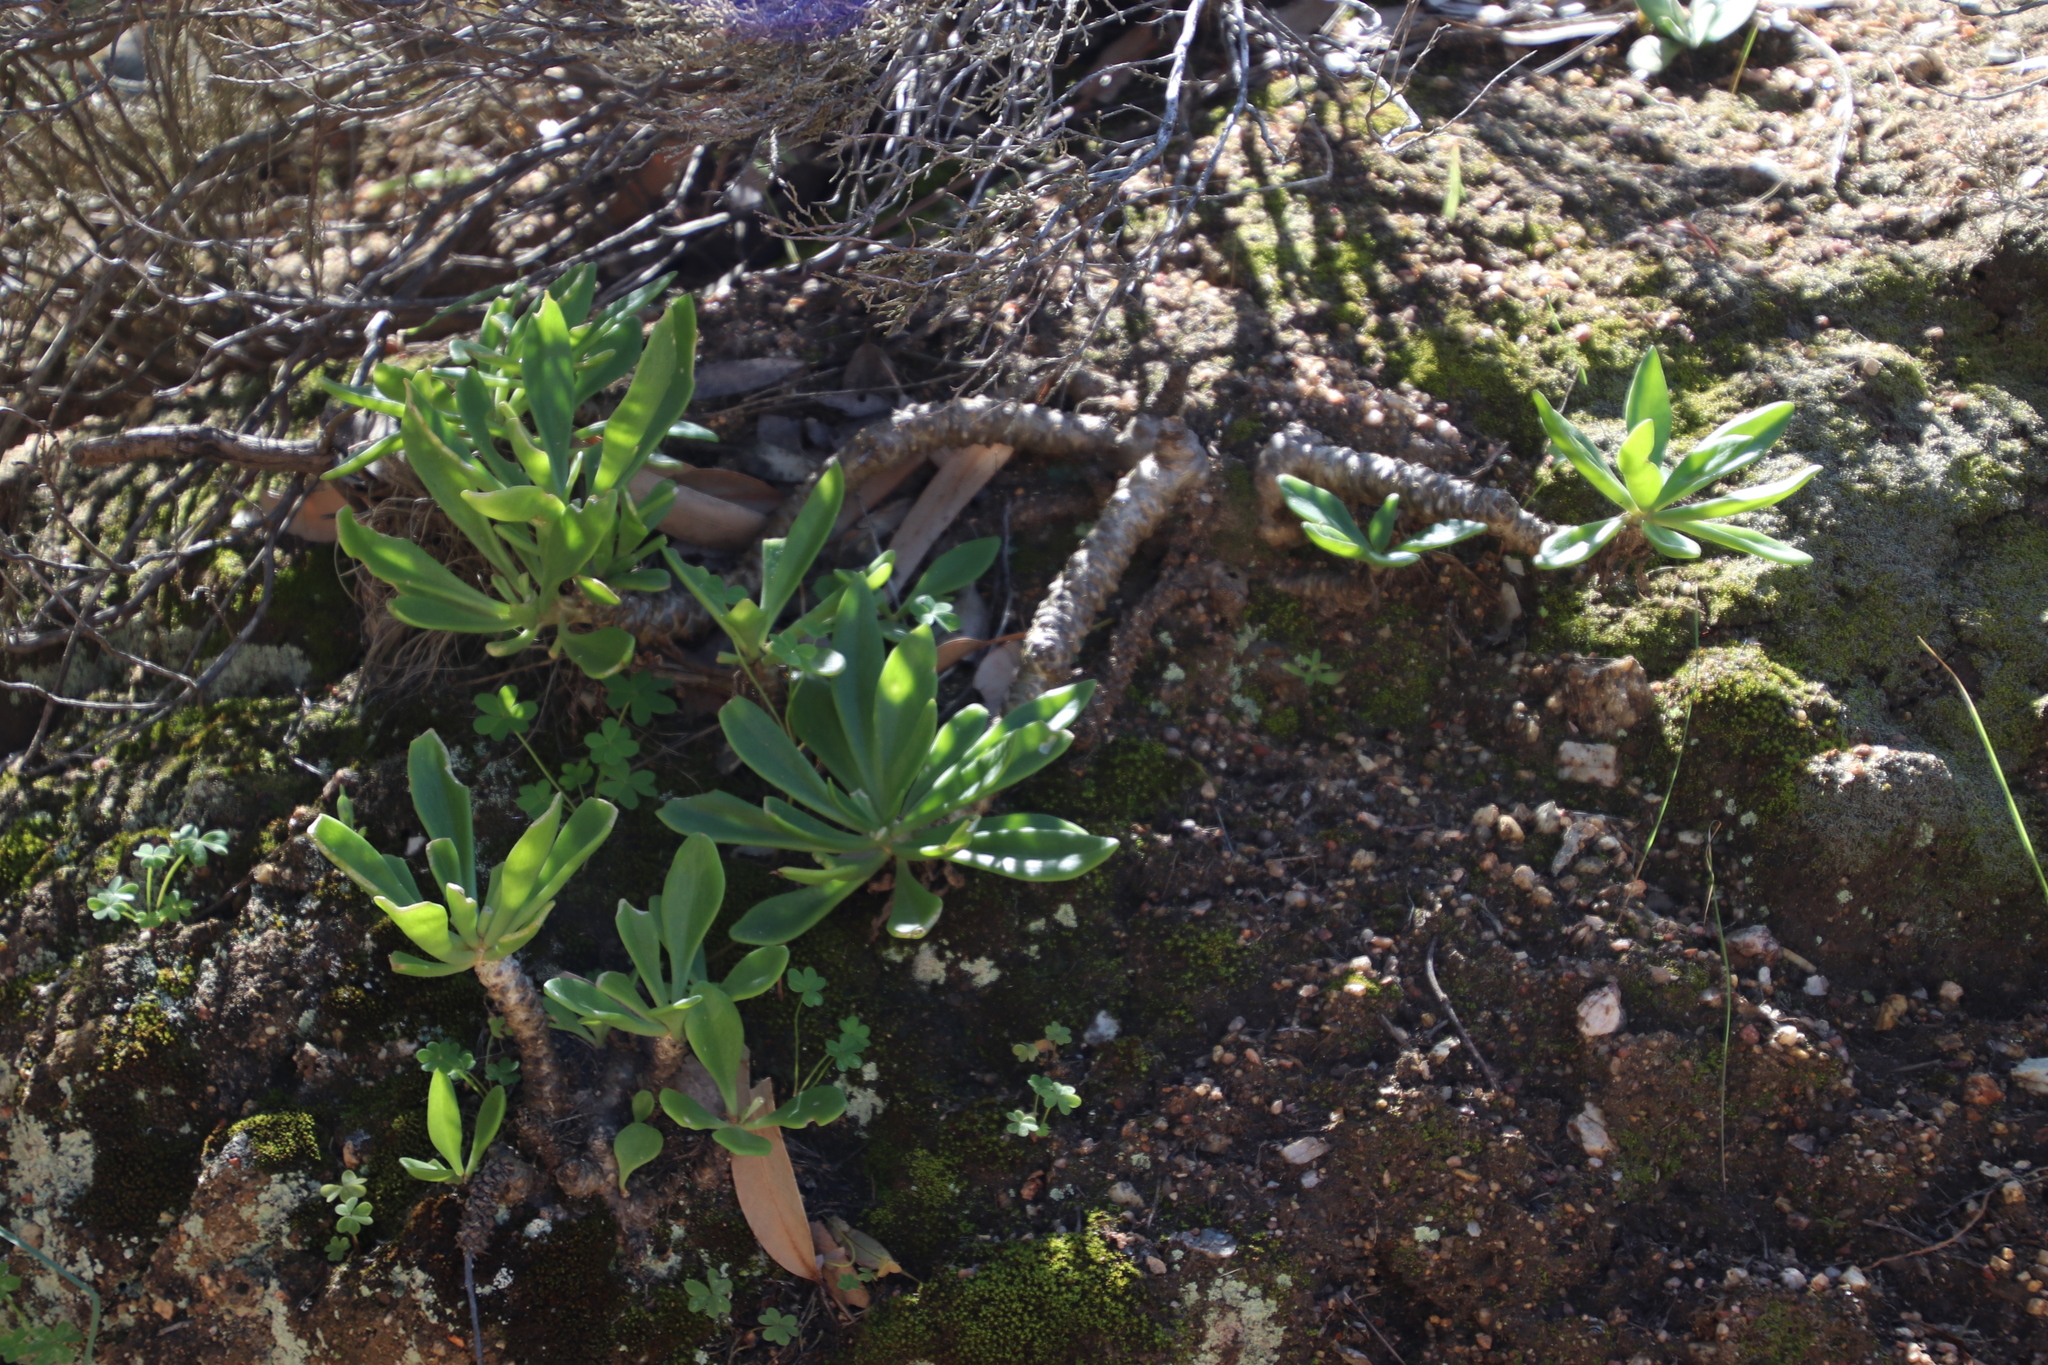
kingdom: Plantae
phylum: Tracheophyta
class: Magnoliopsida
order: Saxifragales
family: Crassulaceae
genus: Tylecodon
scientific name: Tylecodon paniculatus
